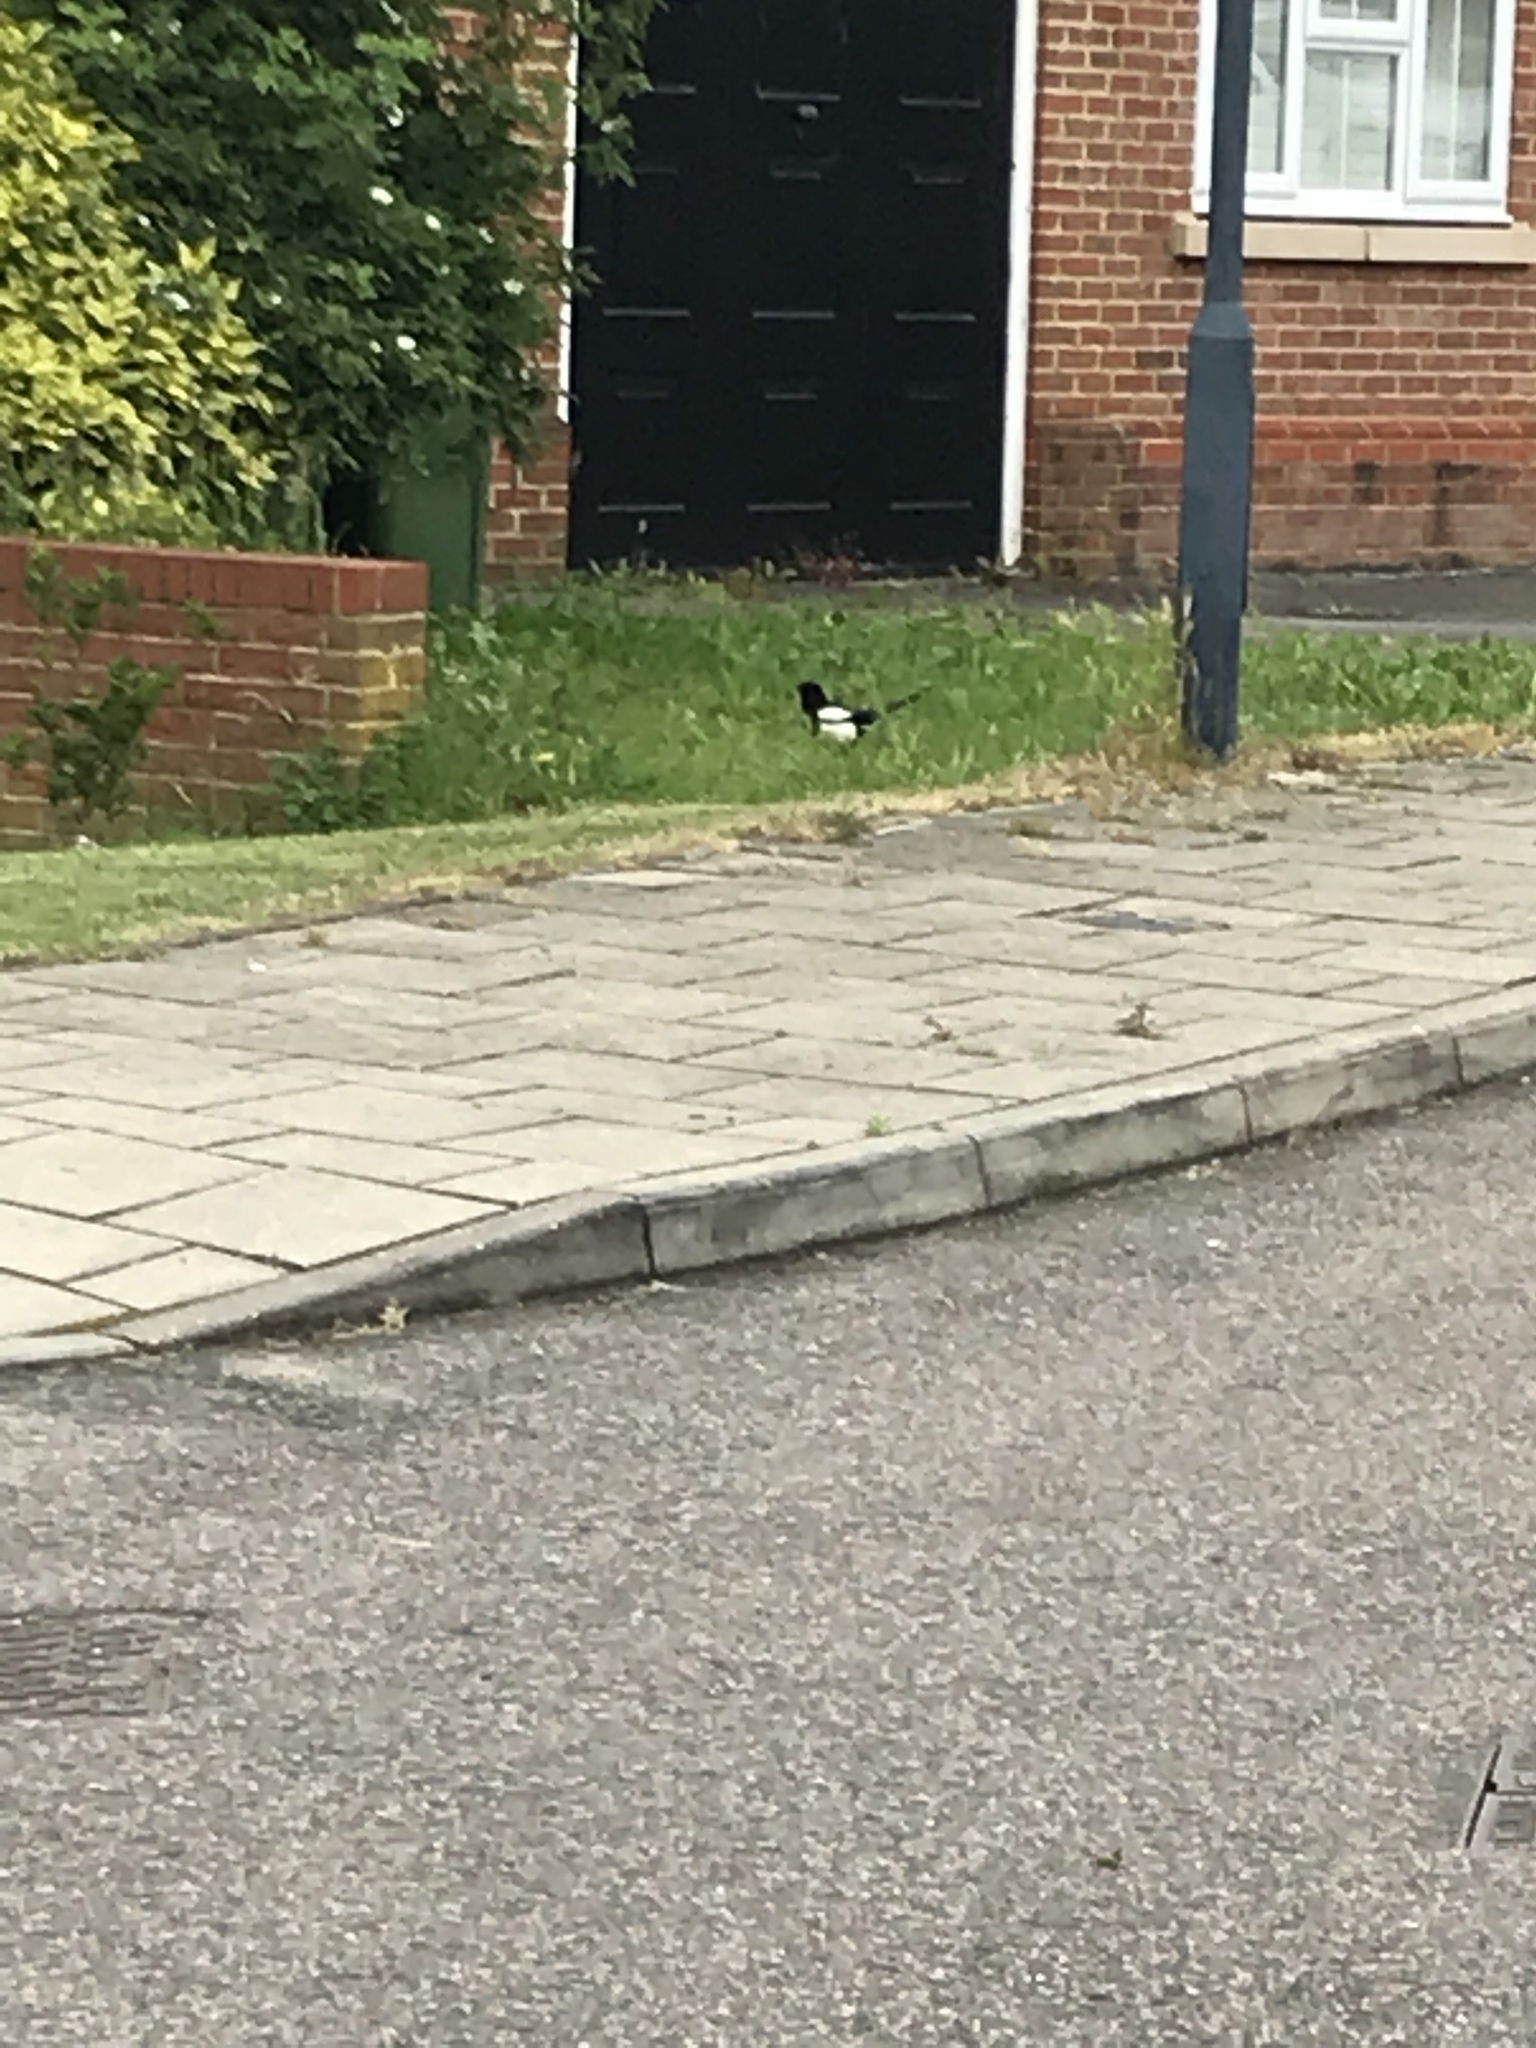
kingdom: Animalia
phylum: Chordata
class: Aves
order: Passeriformes
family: Corvidae
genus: Pica
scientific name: Pica pica
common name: Eurasian magpie
